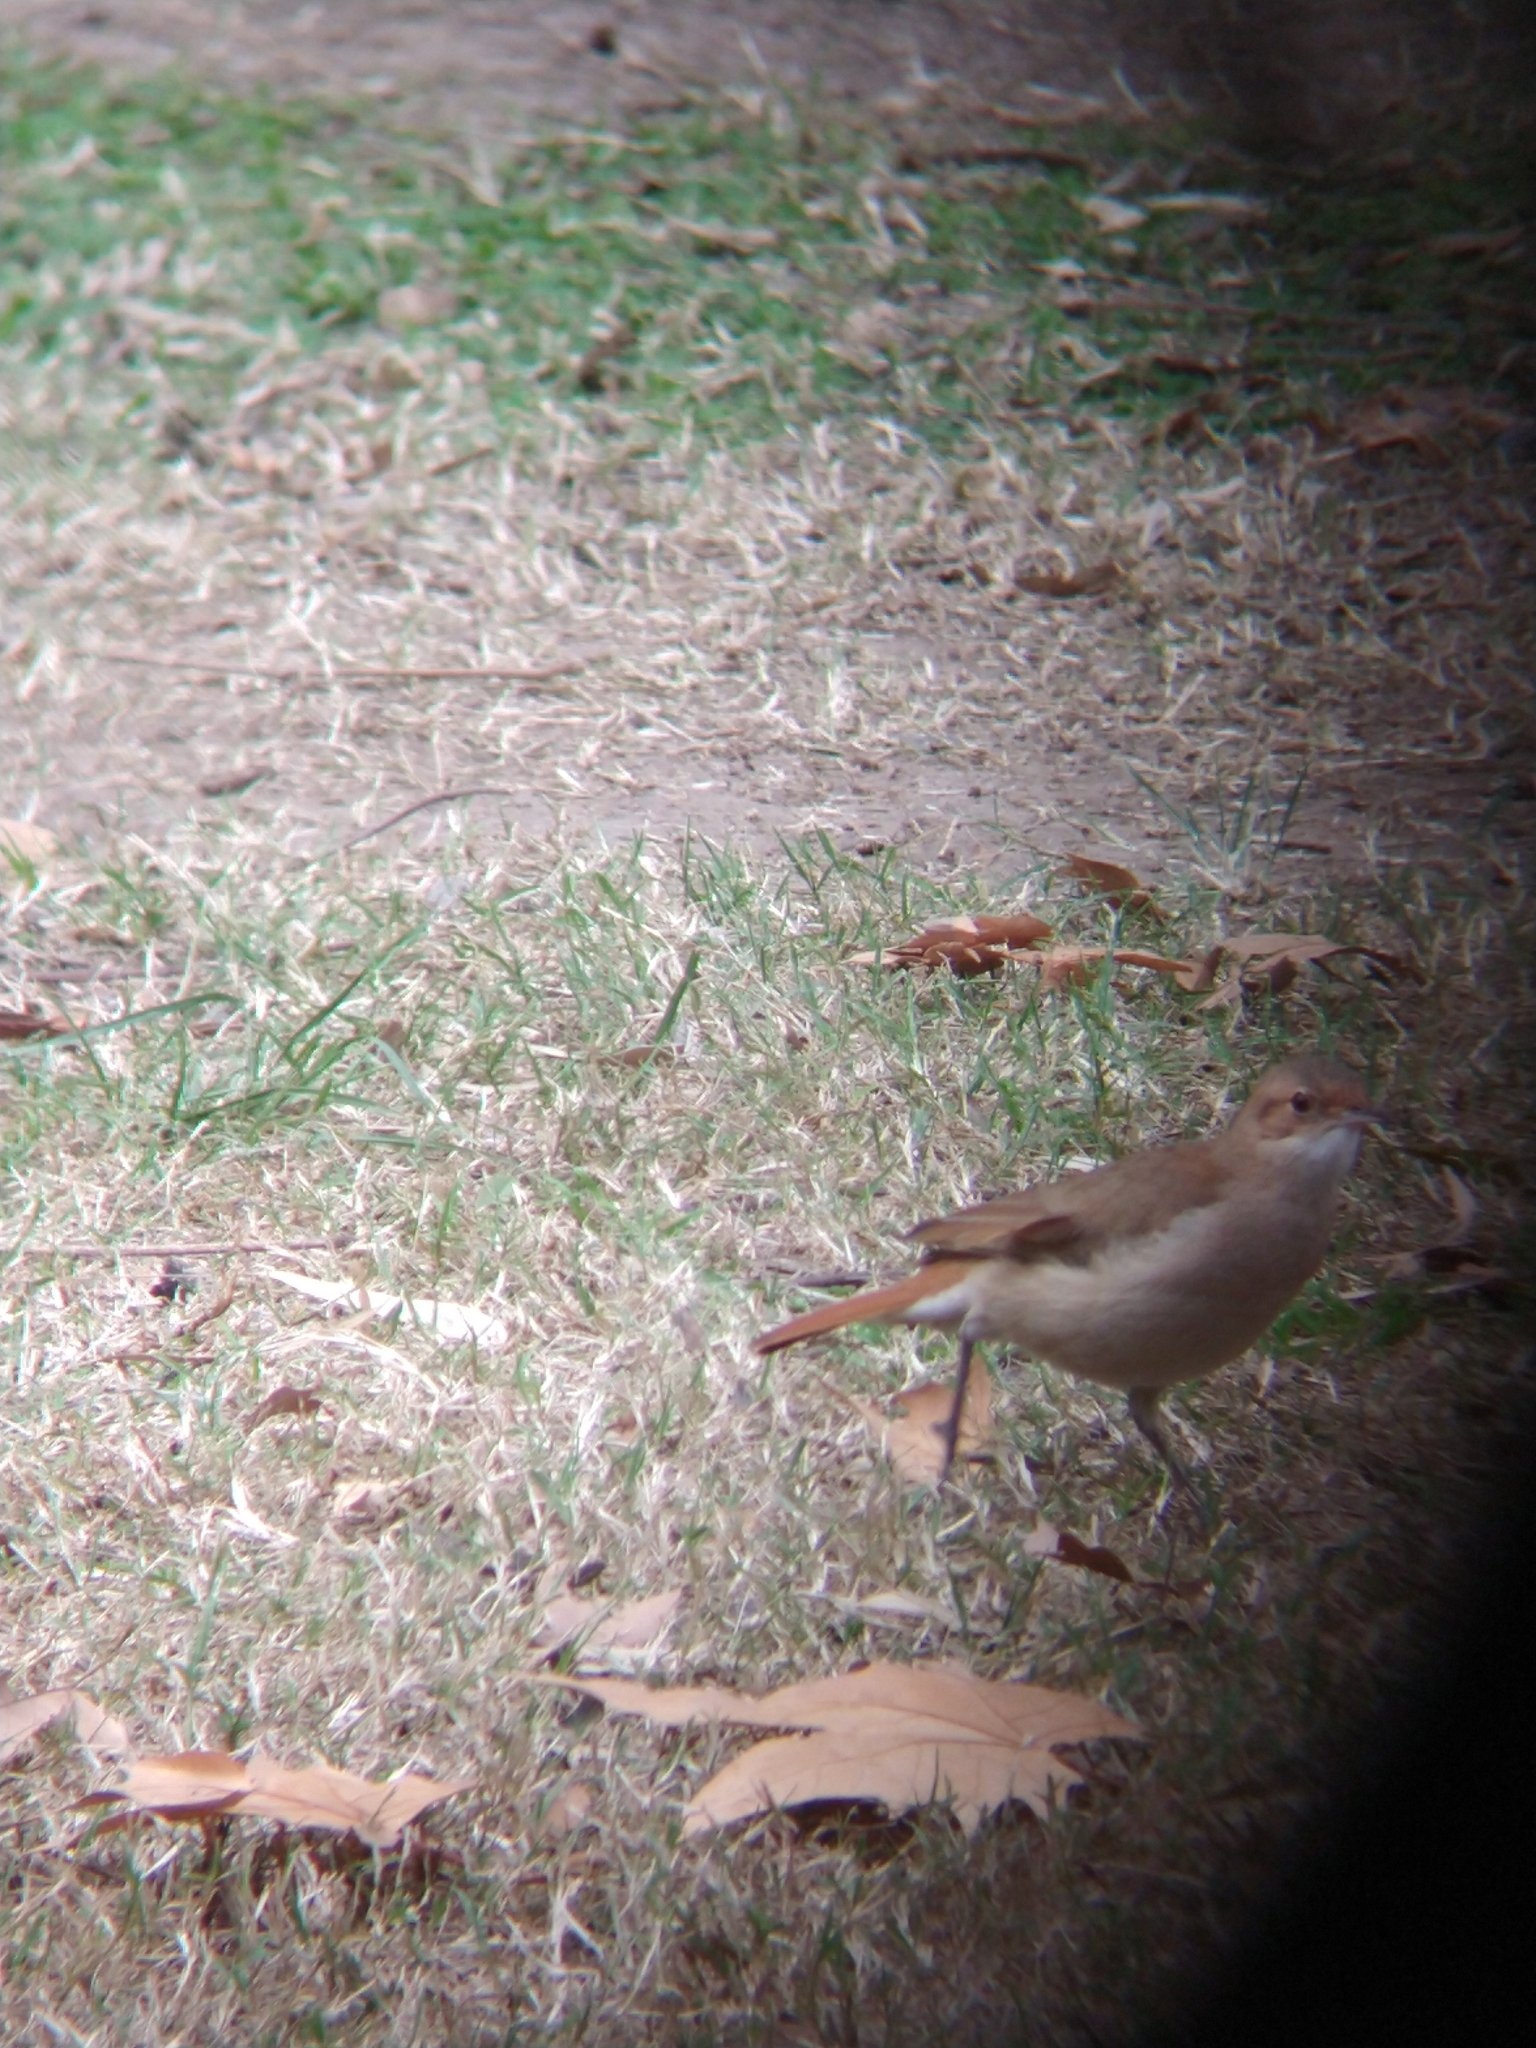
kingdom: Animalia
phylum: Chordata
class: Aves
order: Passeriformes
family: Furnariidae
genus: Furnarius
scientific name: Furnarius rufus
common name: Rufous hornero
